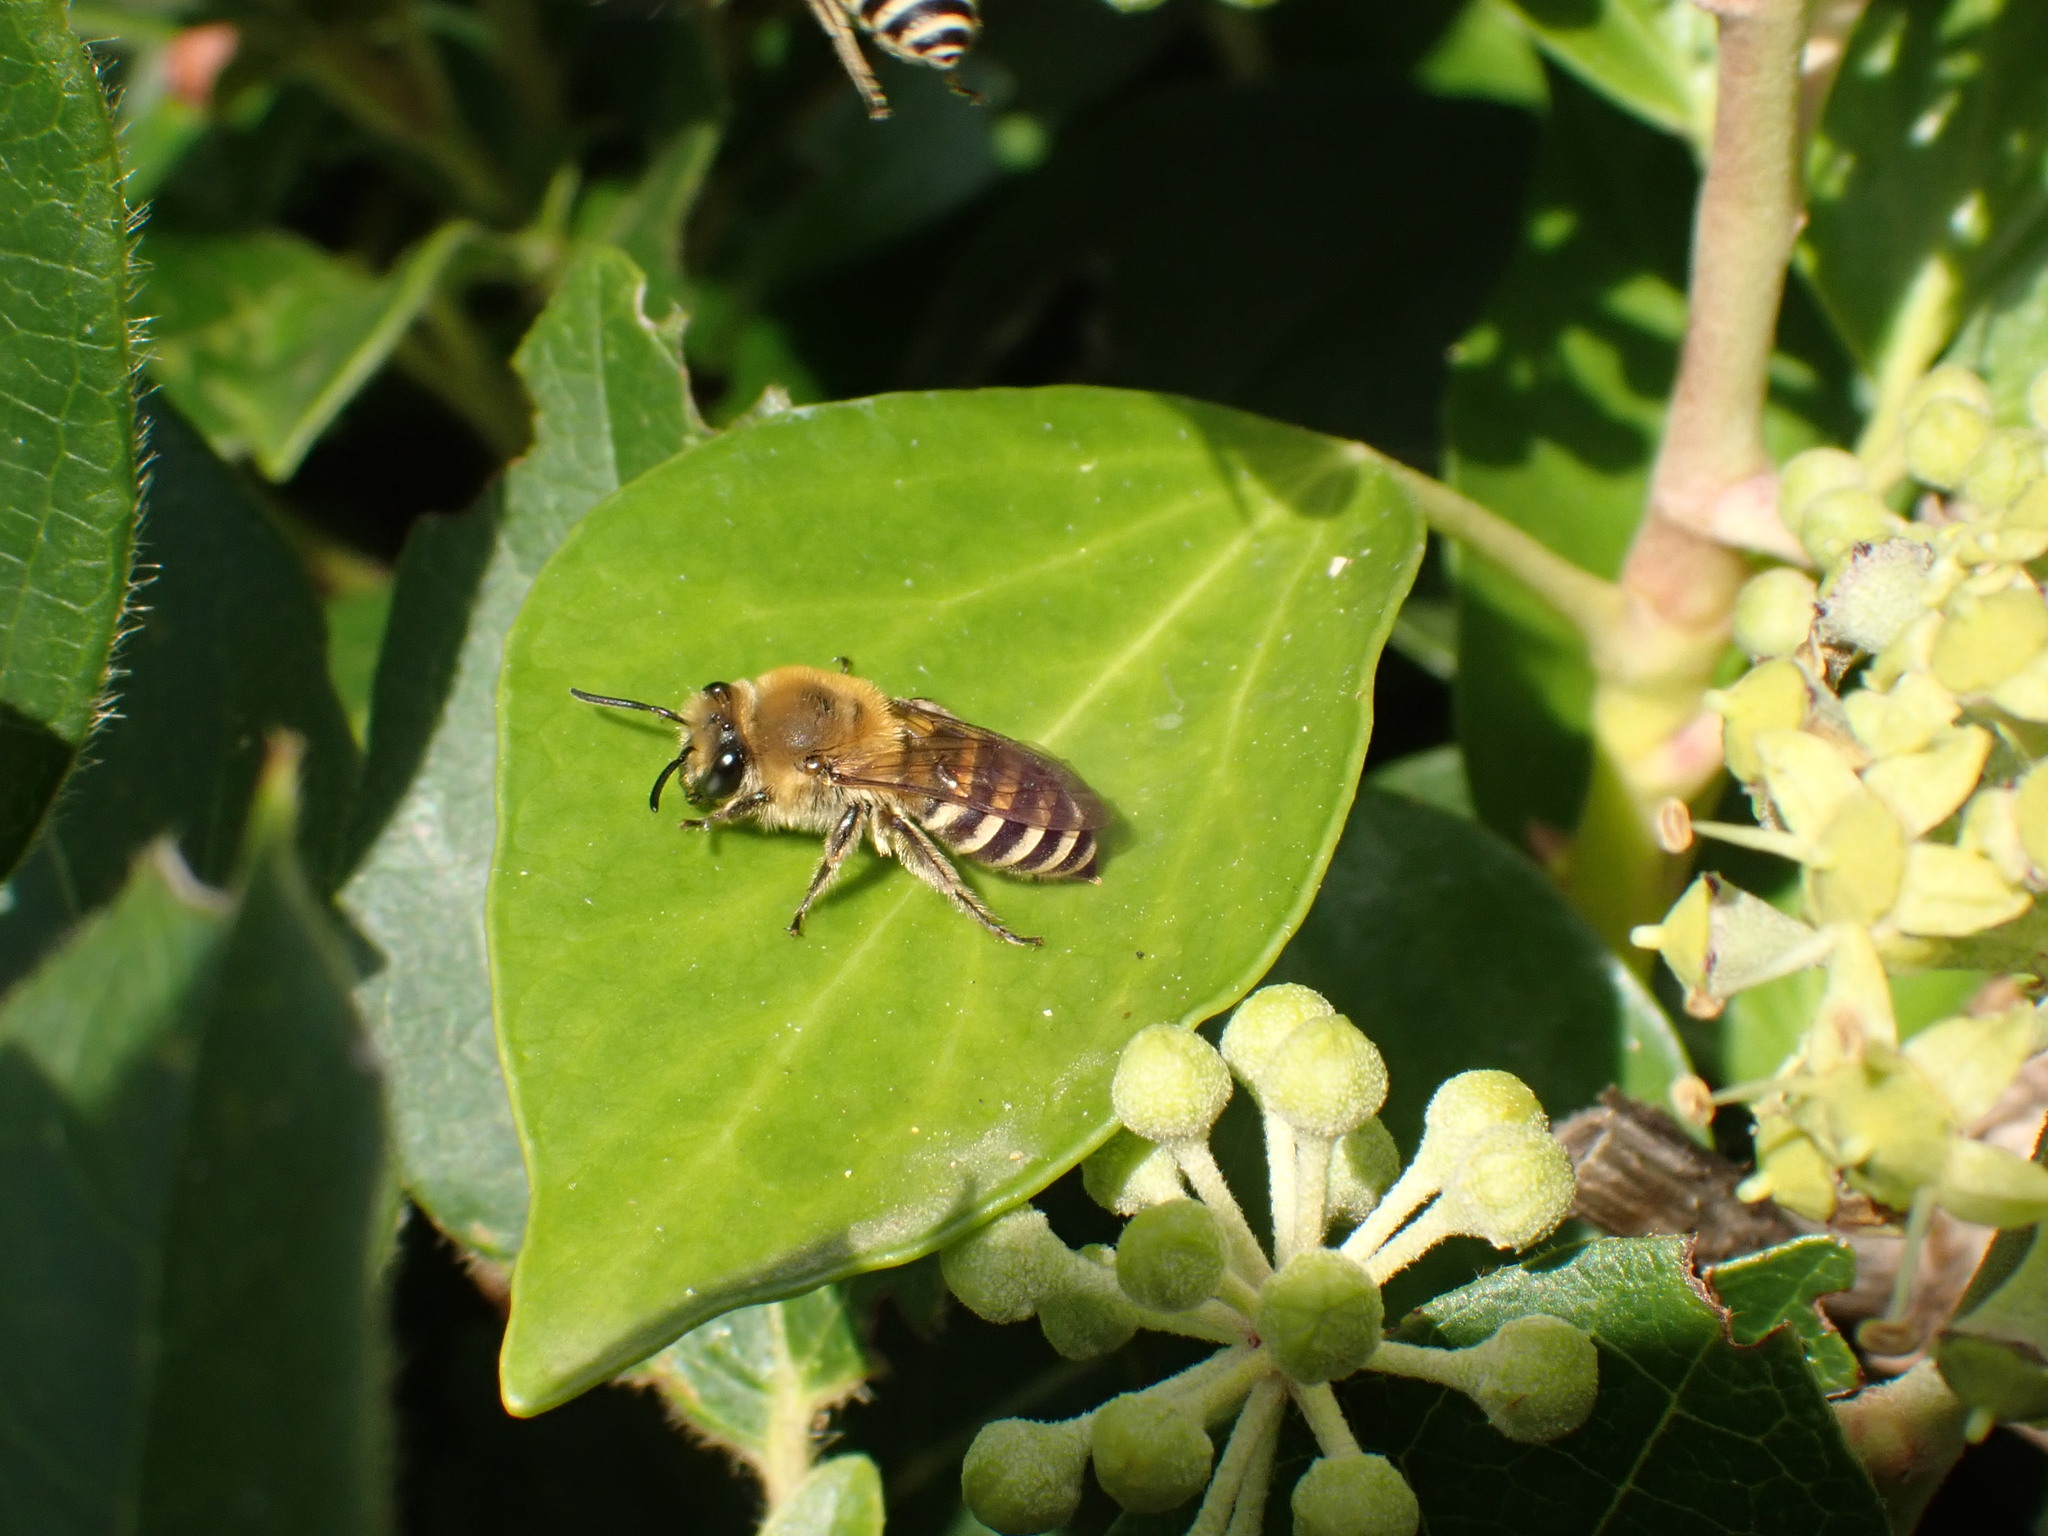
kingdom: Animalia
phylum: Arthropoda
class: Insecta
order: Hymenoptera
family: Colletidae
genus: Colletes
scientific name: Colletes hederae
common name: Ivy bee
